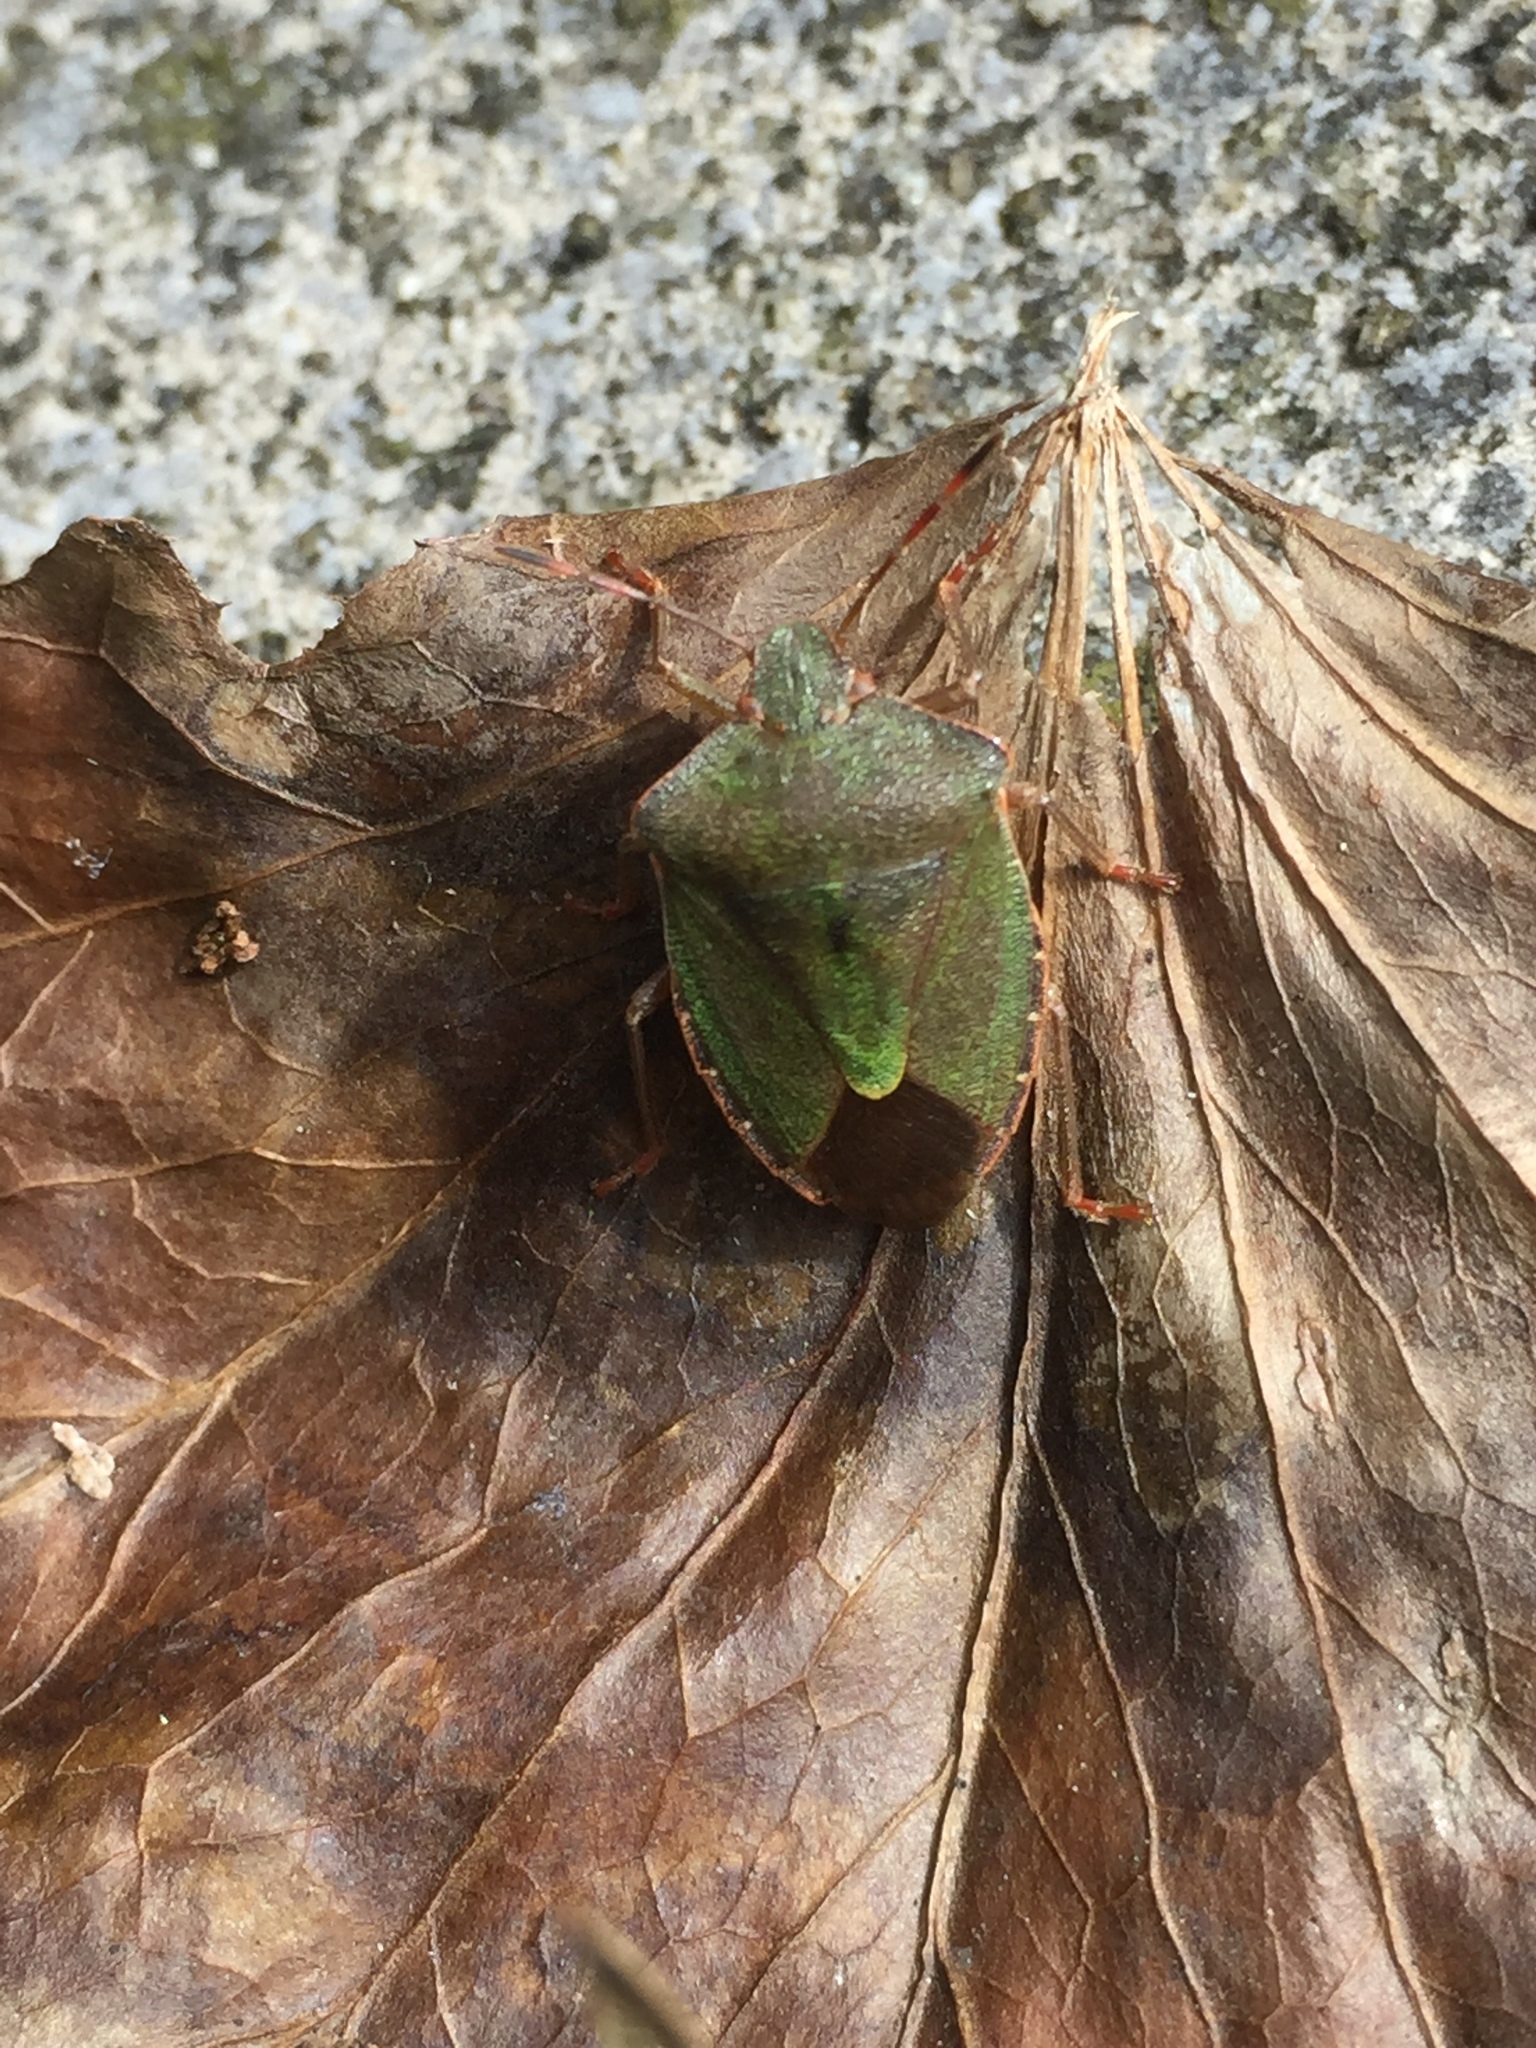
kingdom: Animalia
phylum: Arthropoda
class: Insecta
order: Hemiptera
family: Pentatomidae
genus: Palomena
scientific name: Palomena prasina
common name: Green shieldbug
